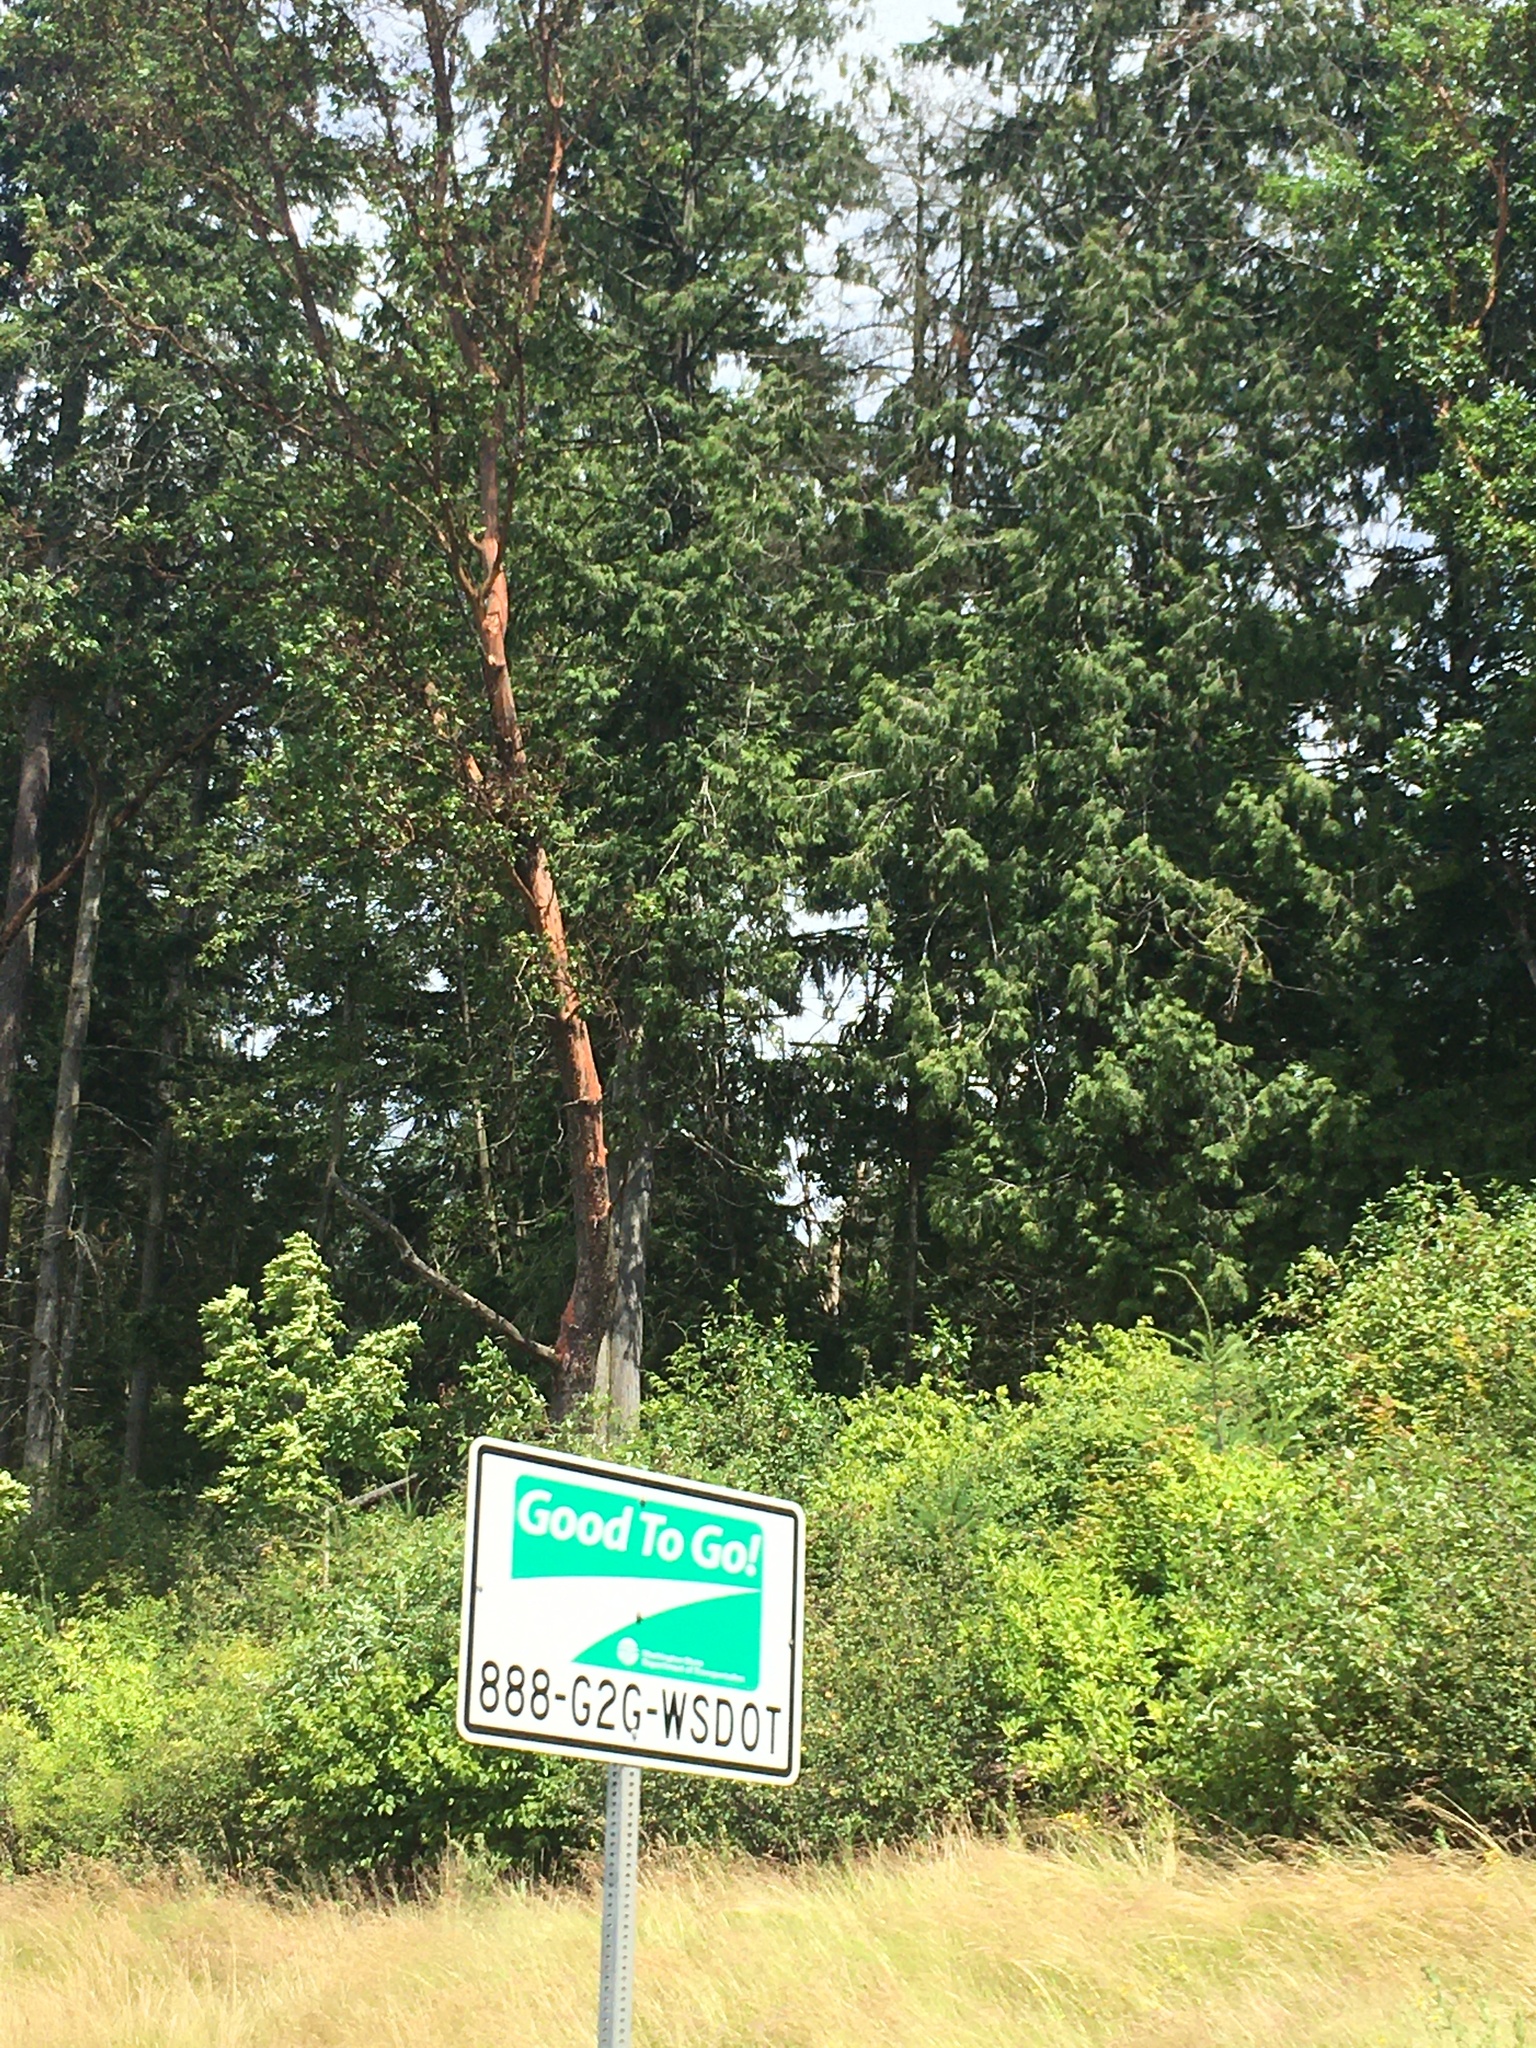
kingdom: Plantae
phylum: Tracheophyta
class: Magnoliopsida
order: Ericales
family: Ericaceae
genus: Arbutus
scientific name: Arbutus menziesii
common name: Pacific madrone
